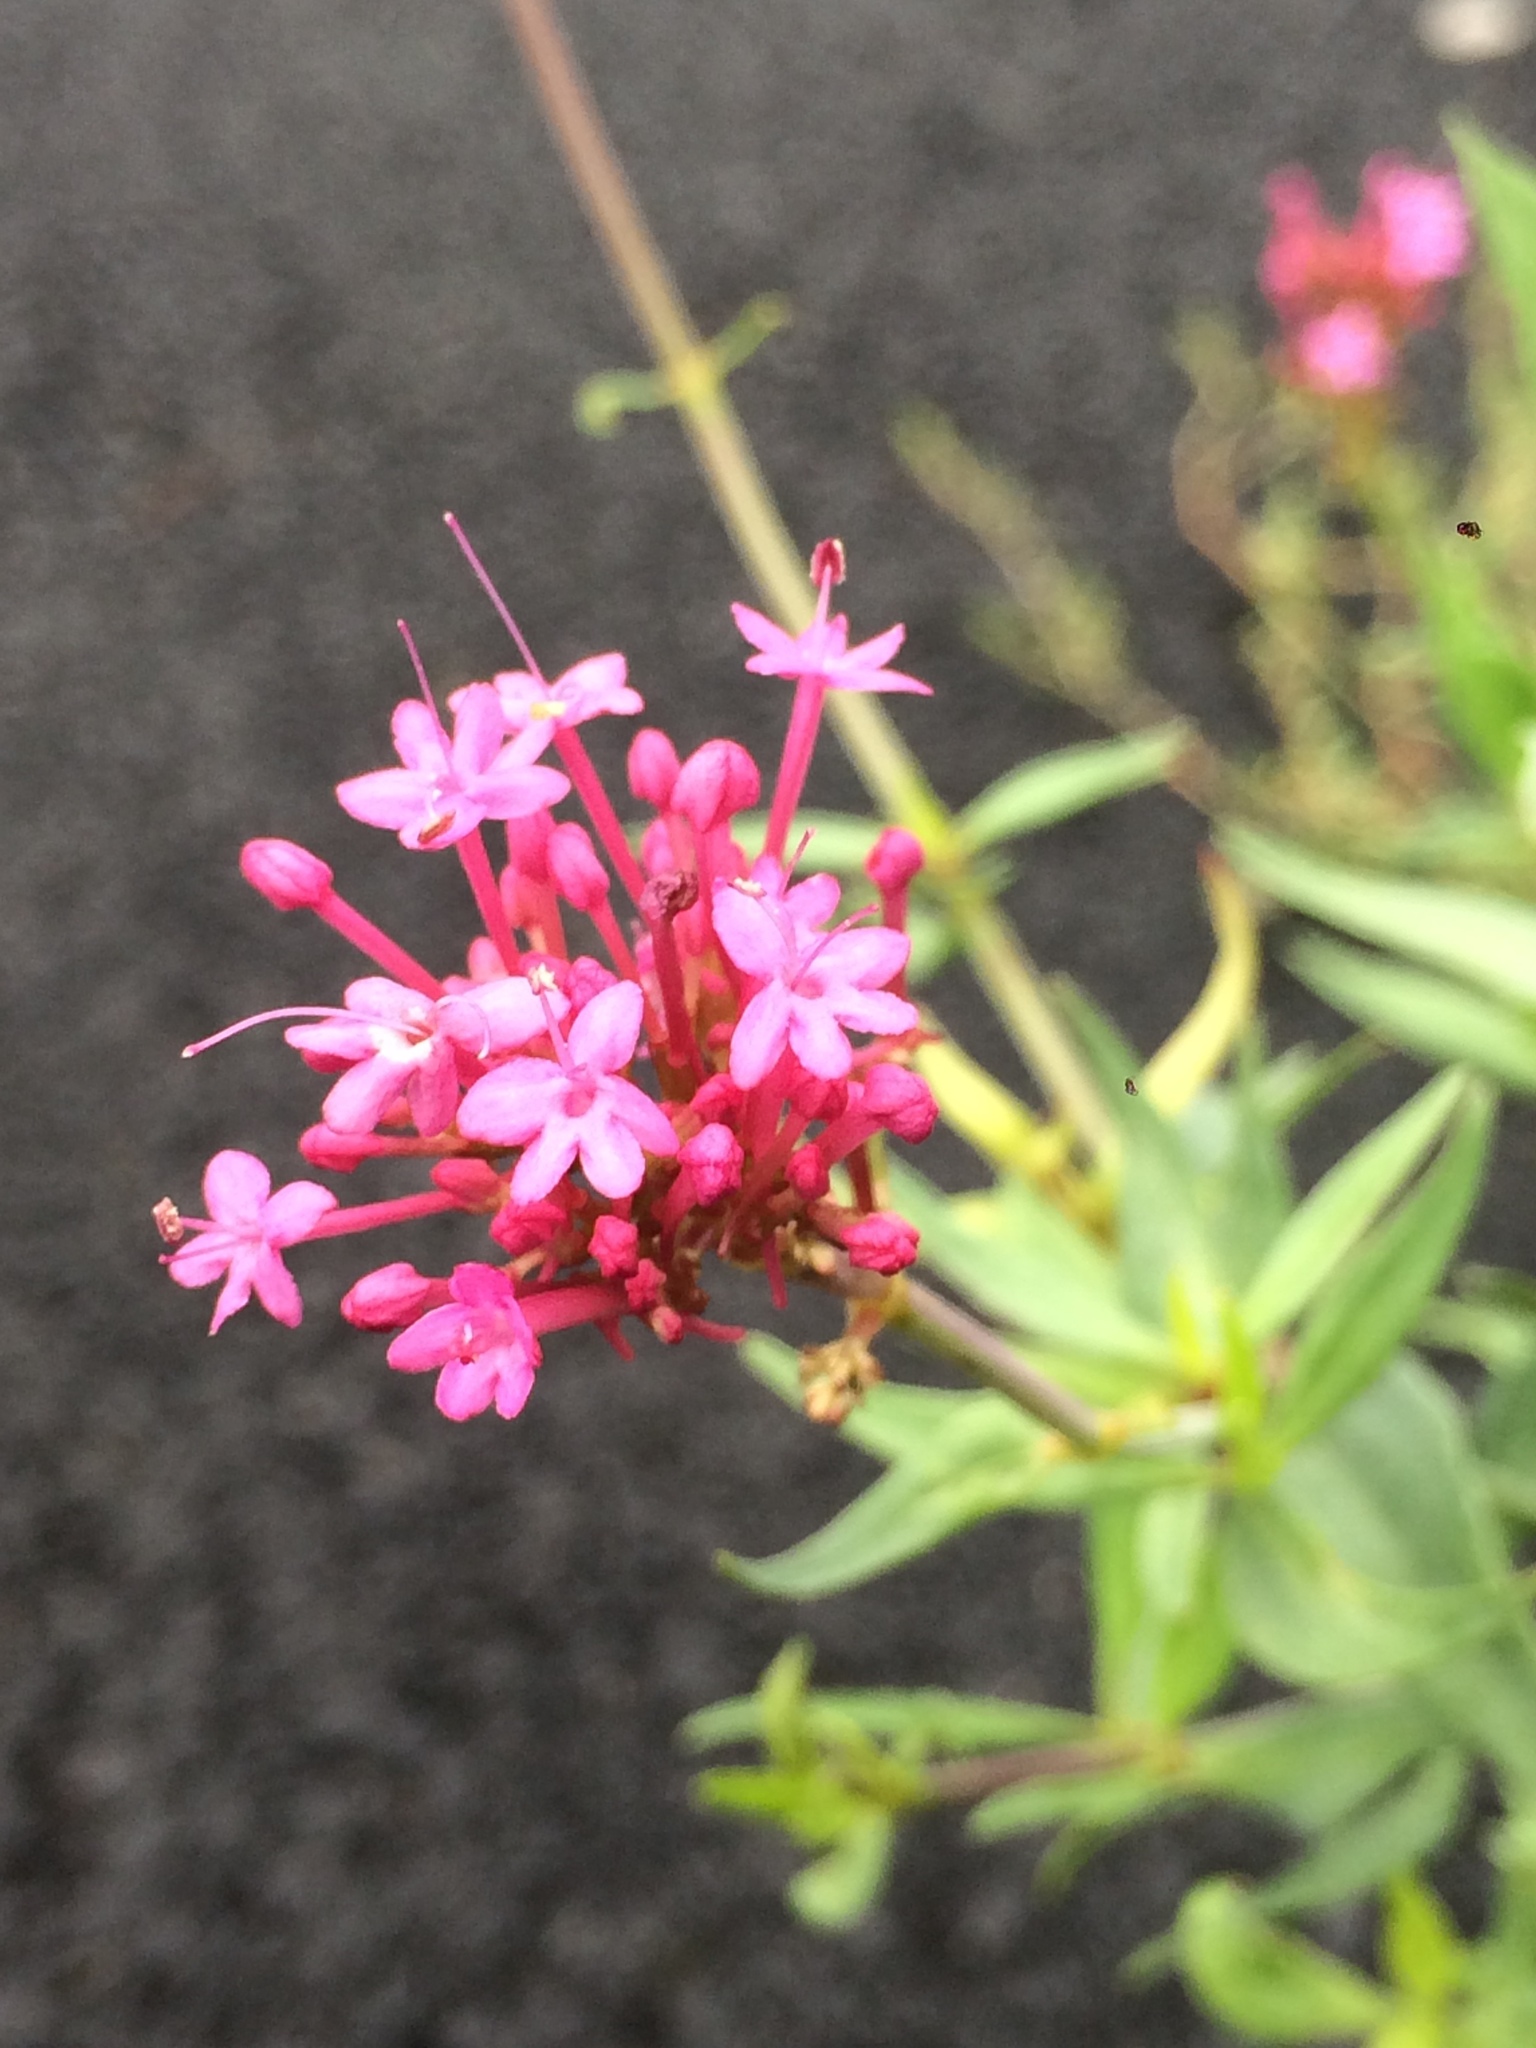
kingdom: Plantae
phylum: Tracheophyta
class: Magnoliopsida
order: Dipsacales
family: Caprifoliaceae
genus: Centranthus
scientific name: Centranthus ruber
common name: Red valerian
